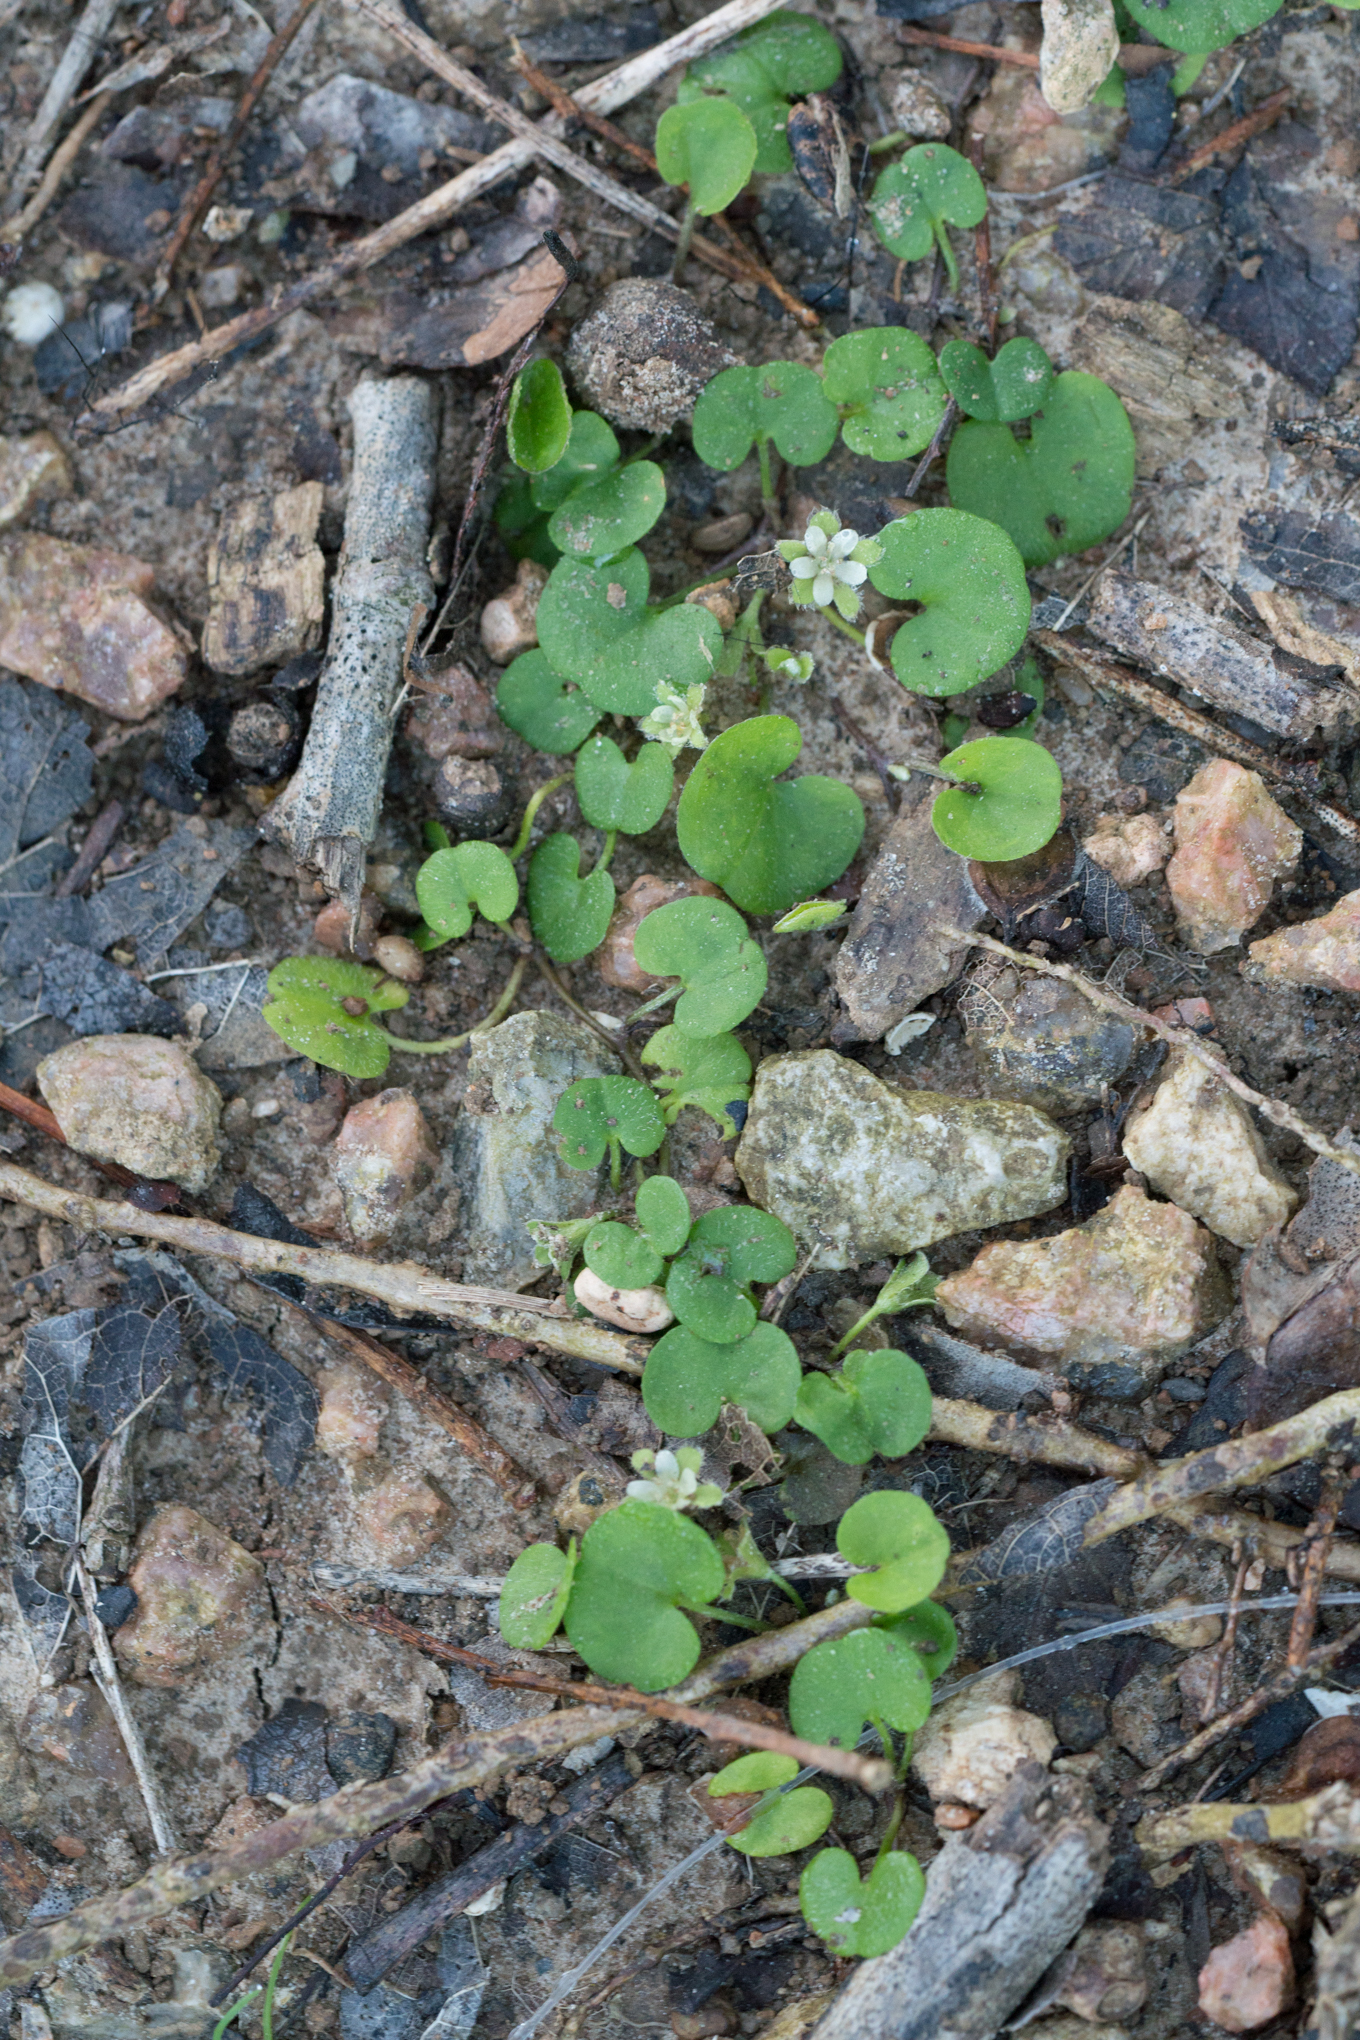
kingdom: Plantae
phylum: Tracheophyta
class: Magnoliopsida
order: Solanales
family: Convolvulaceae
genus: Dichondra
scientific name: Dichondra carolinensis
